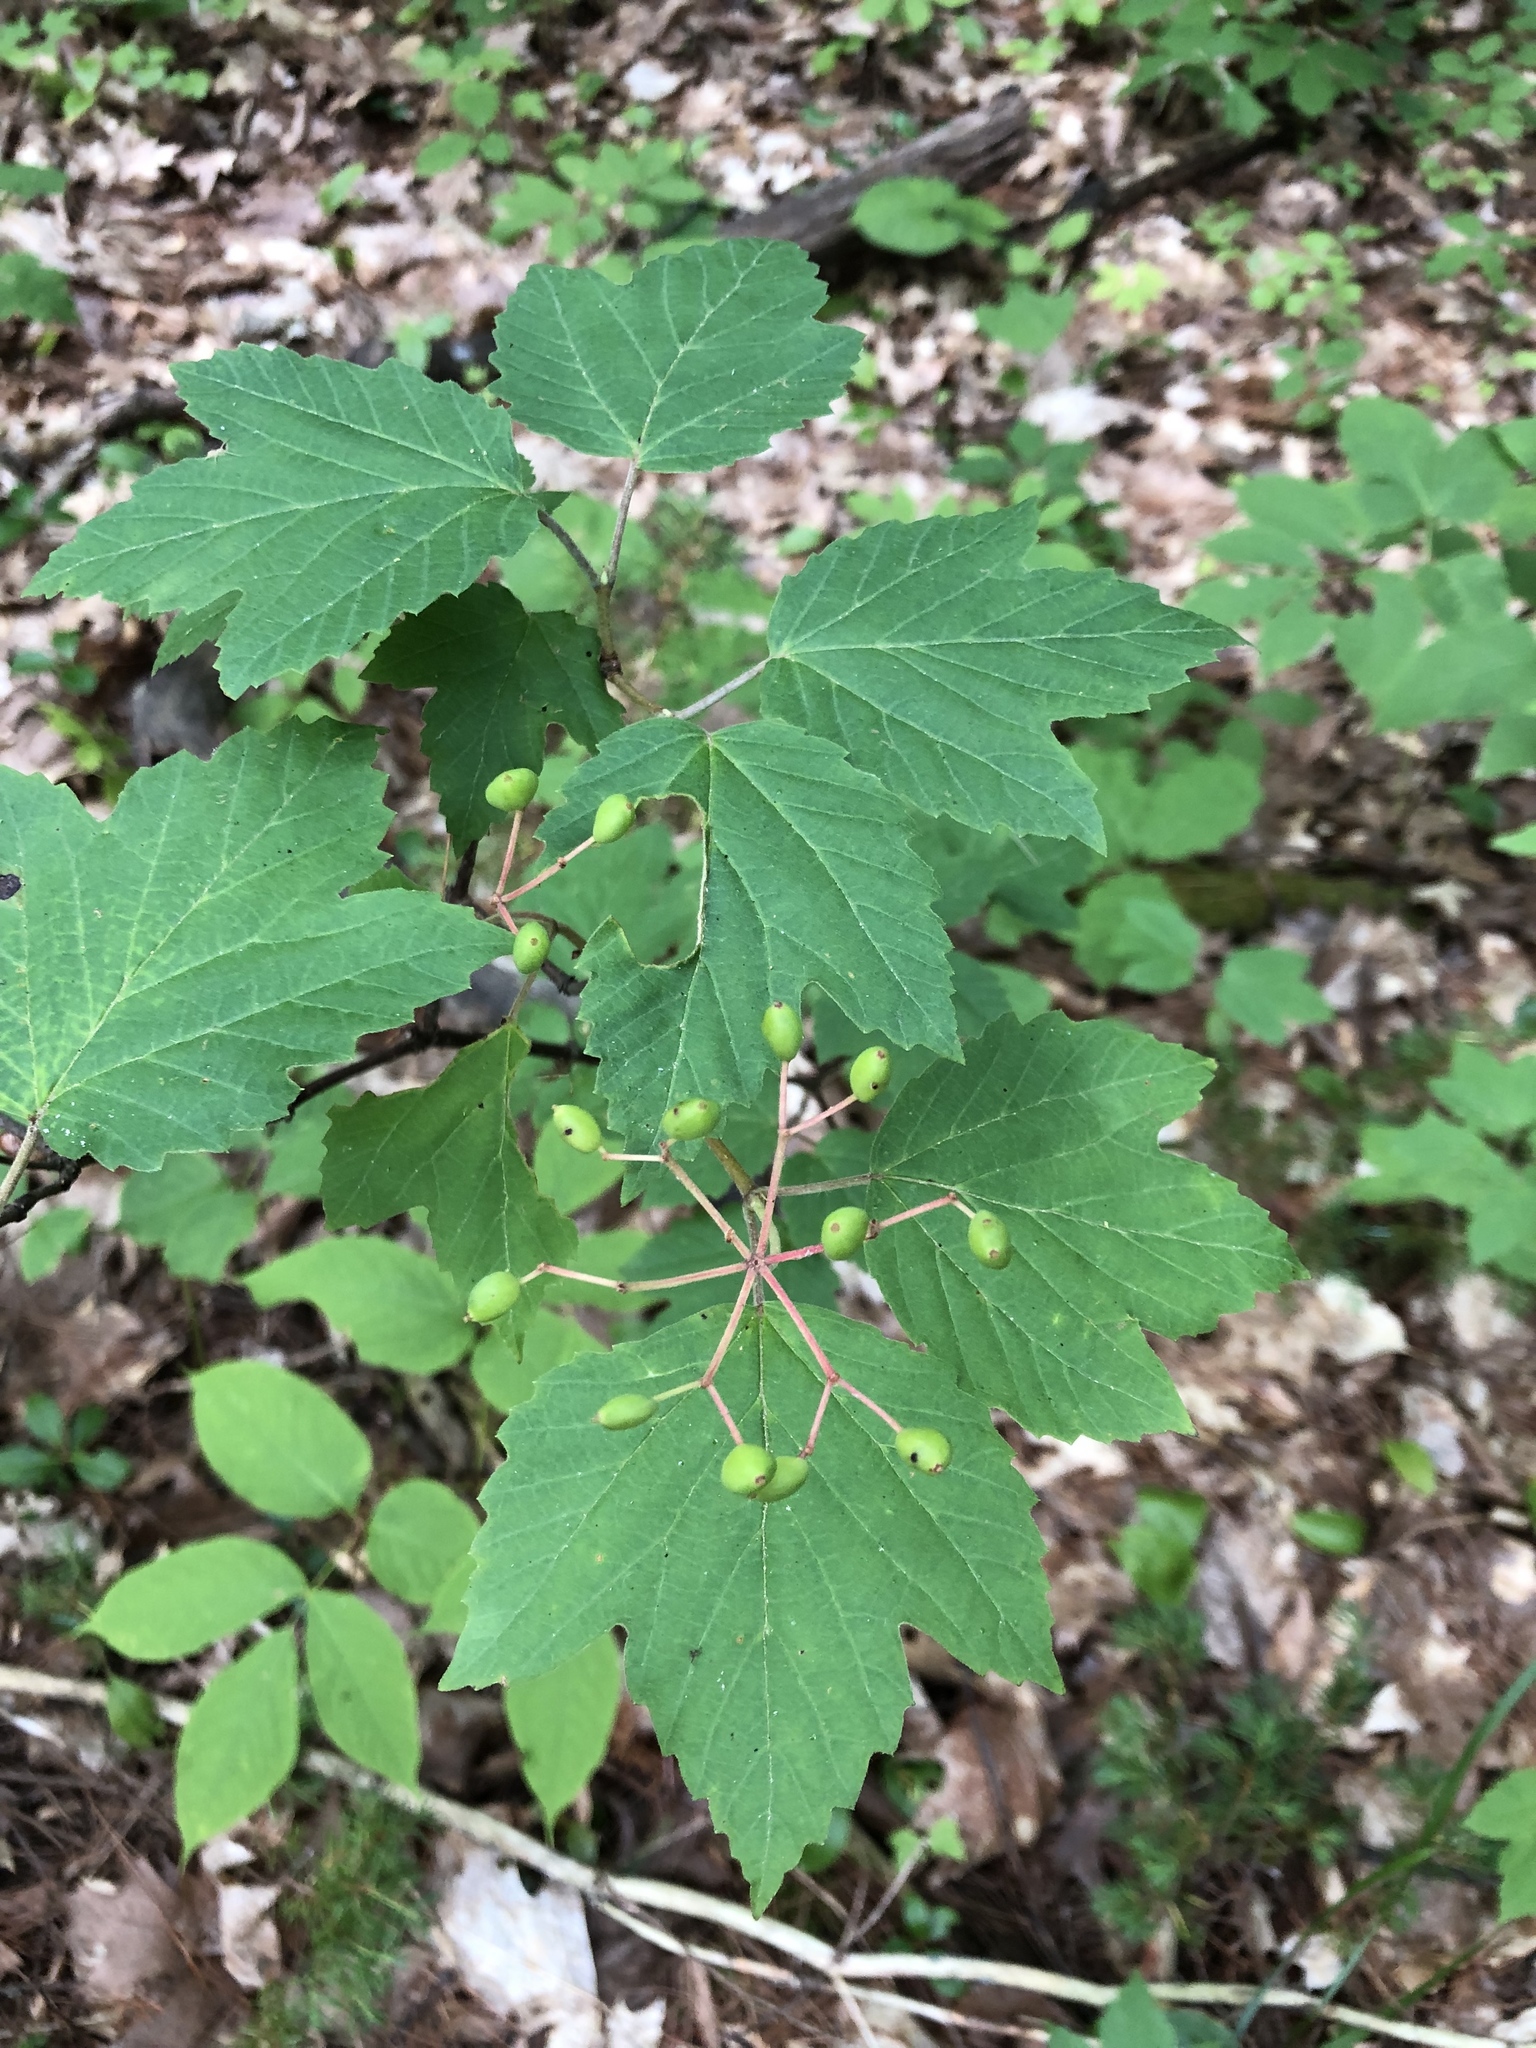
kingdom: Plantae
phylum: Tracheophyta
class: Magnoliopsida
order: Dipsacales
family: Viburnaceae
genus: Viburnum
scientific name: Viburnum acerifolium
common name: Dockmackie
